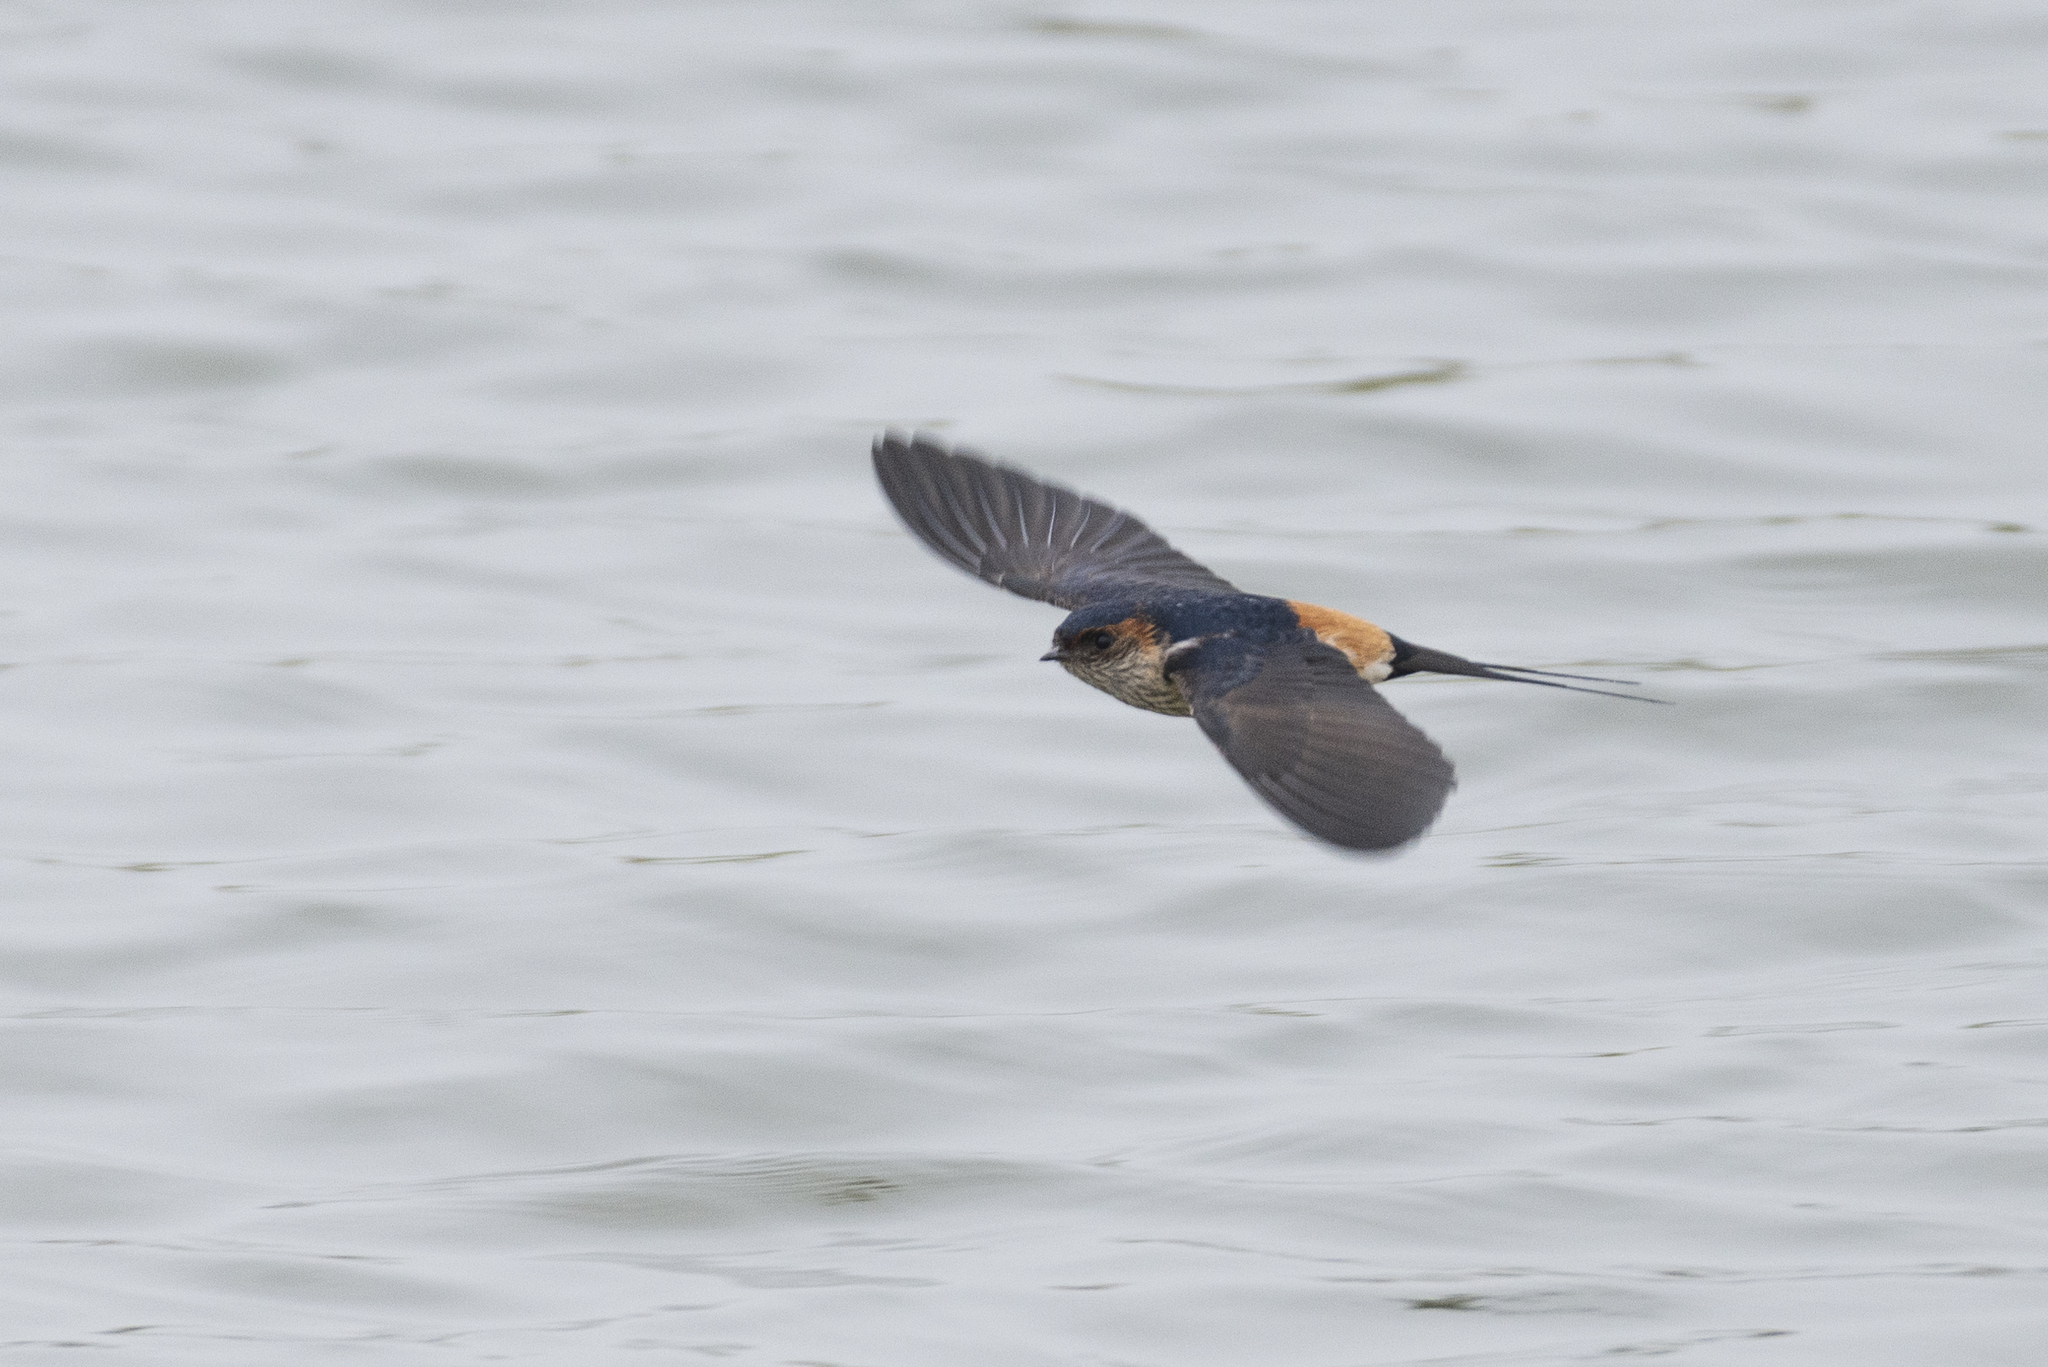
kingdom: Animalia
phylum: Chordata
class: Aves
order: Passeriformes
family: Hirundinidae
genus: Cecropis
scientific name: Cecropis daurica
